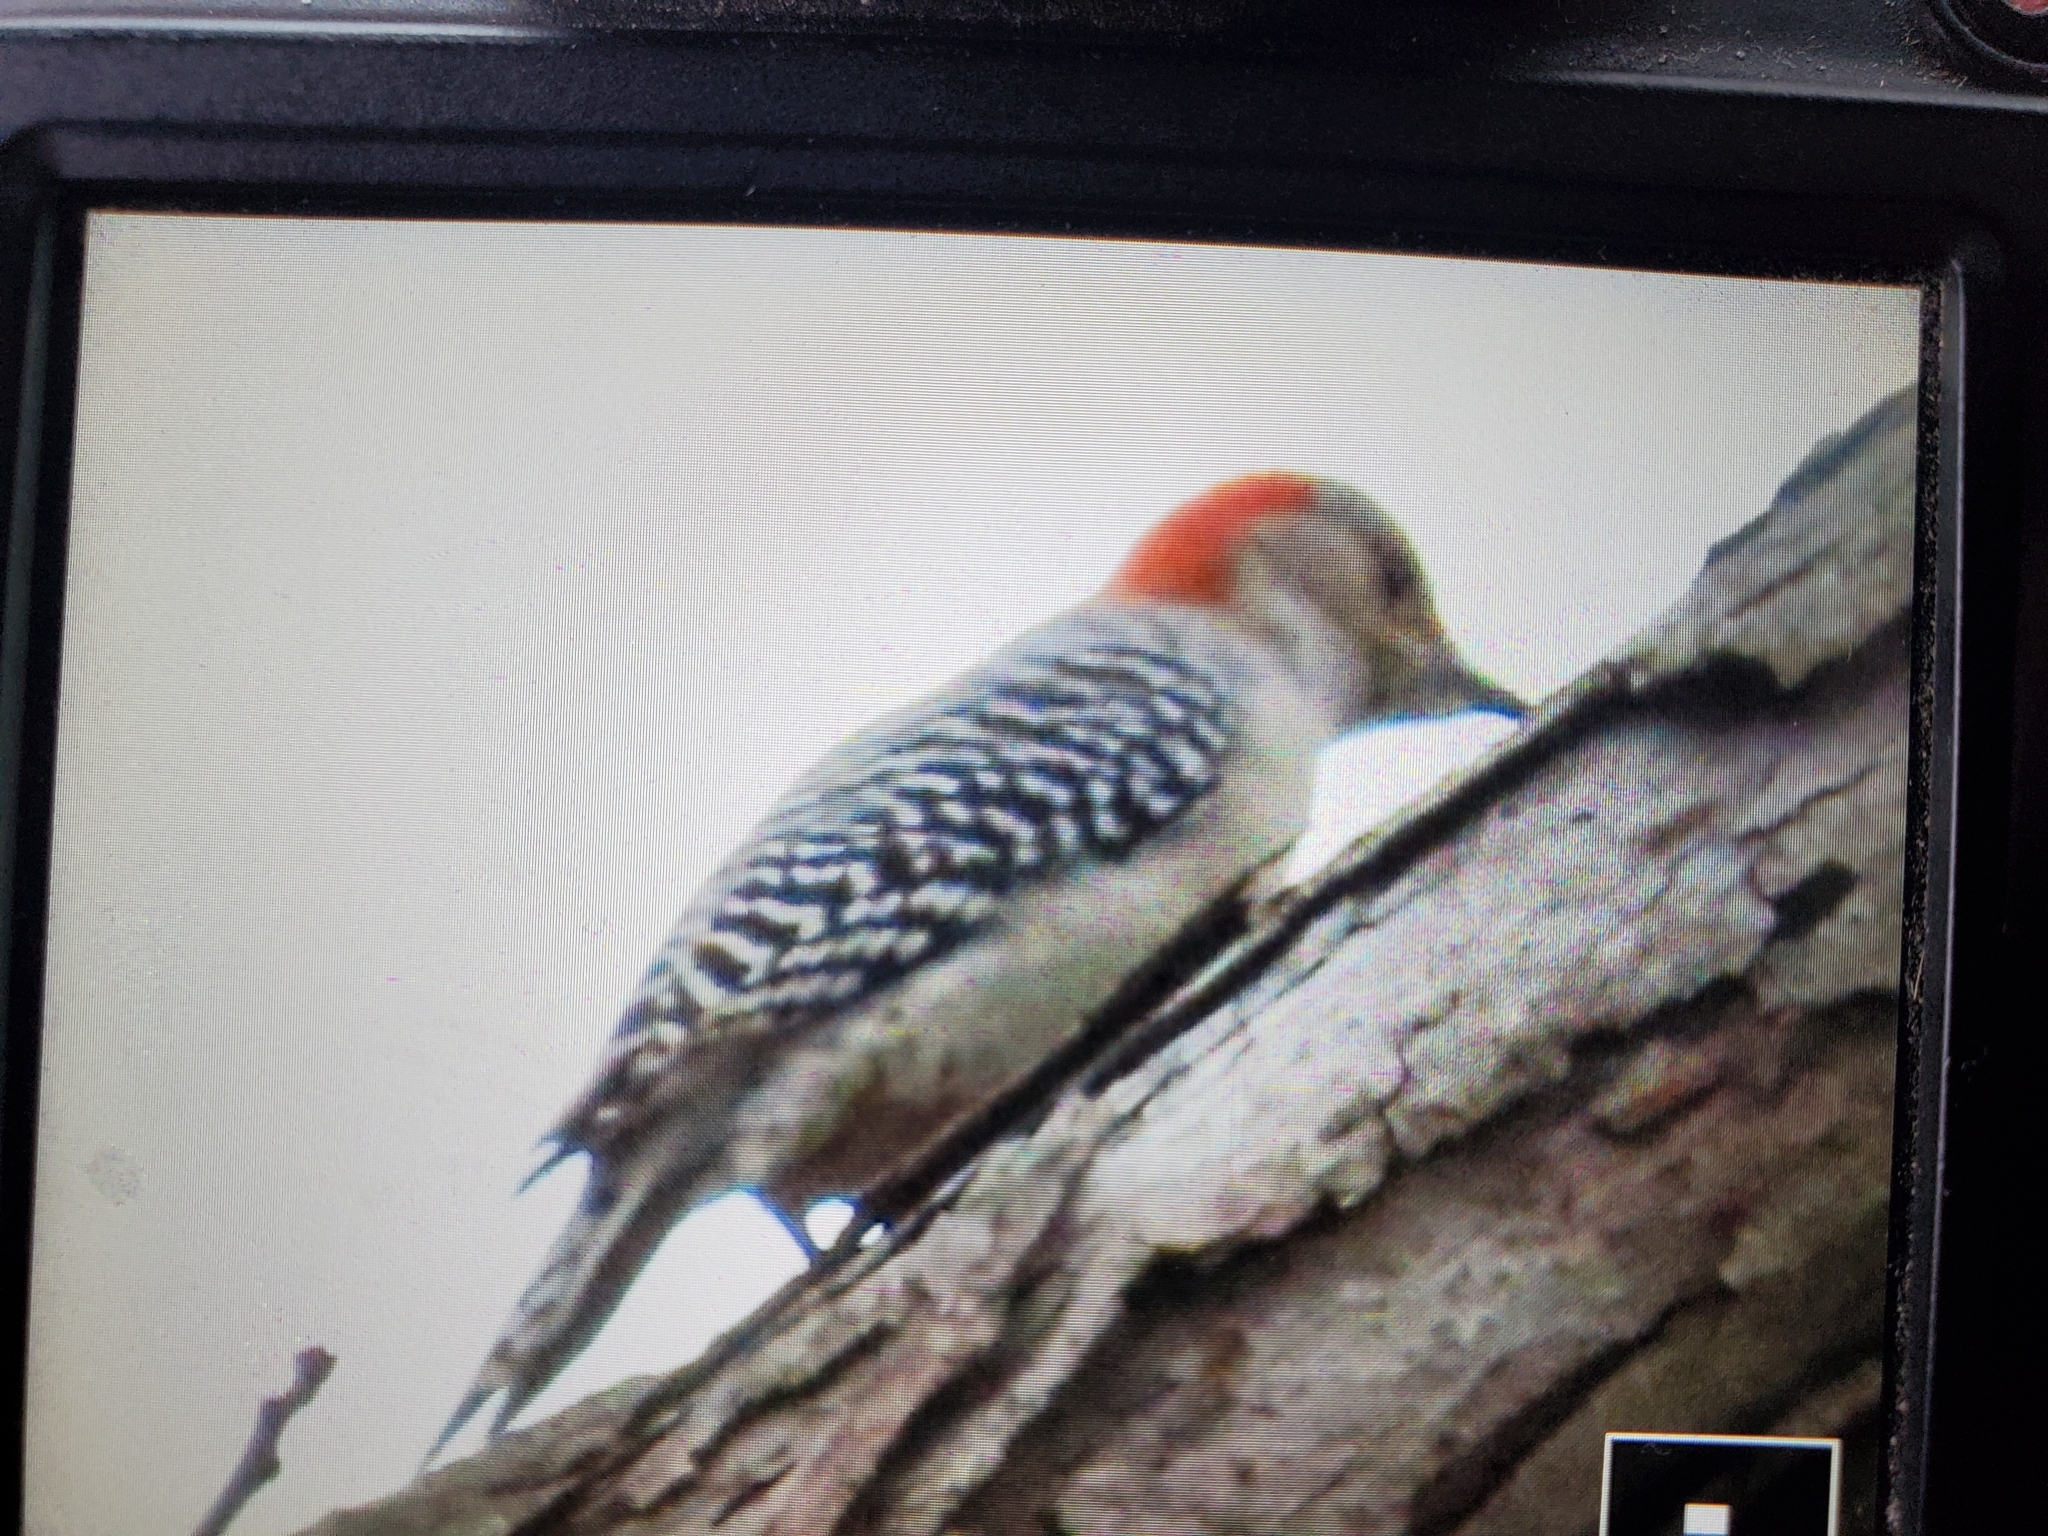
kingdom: Animalia
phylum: Chordata
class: Aves
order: Piciformes
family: Picidae
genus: Melanerpes
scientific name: Melanerpes carolinus
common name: Red-bellied woodpecker
